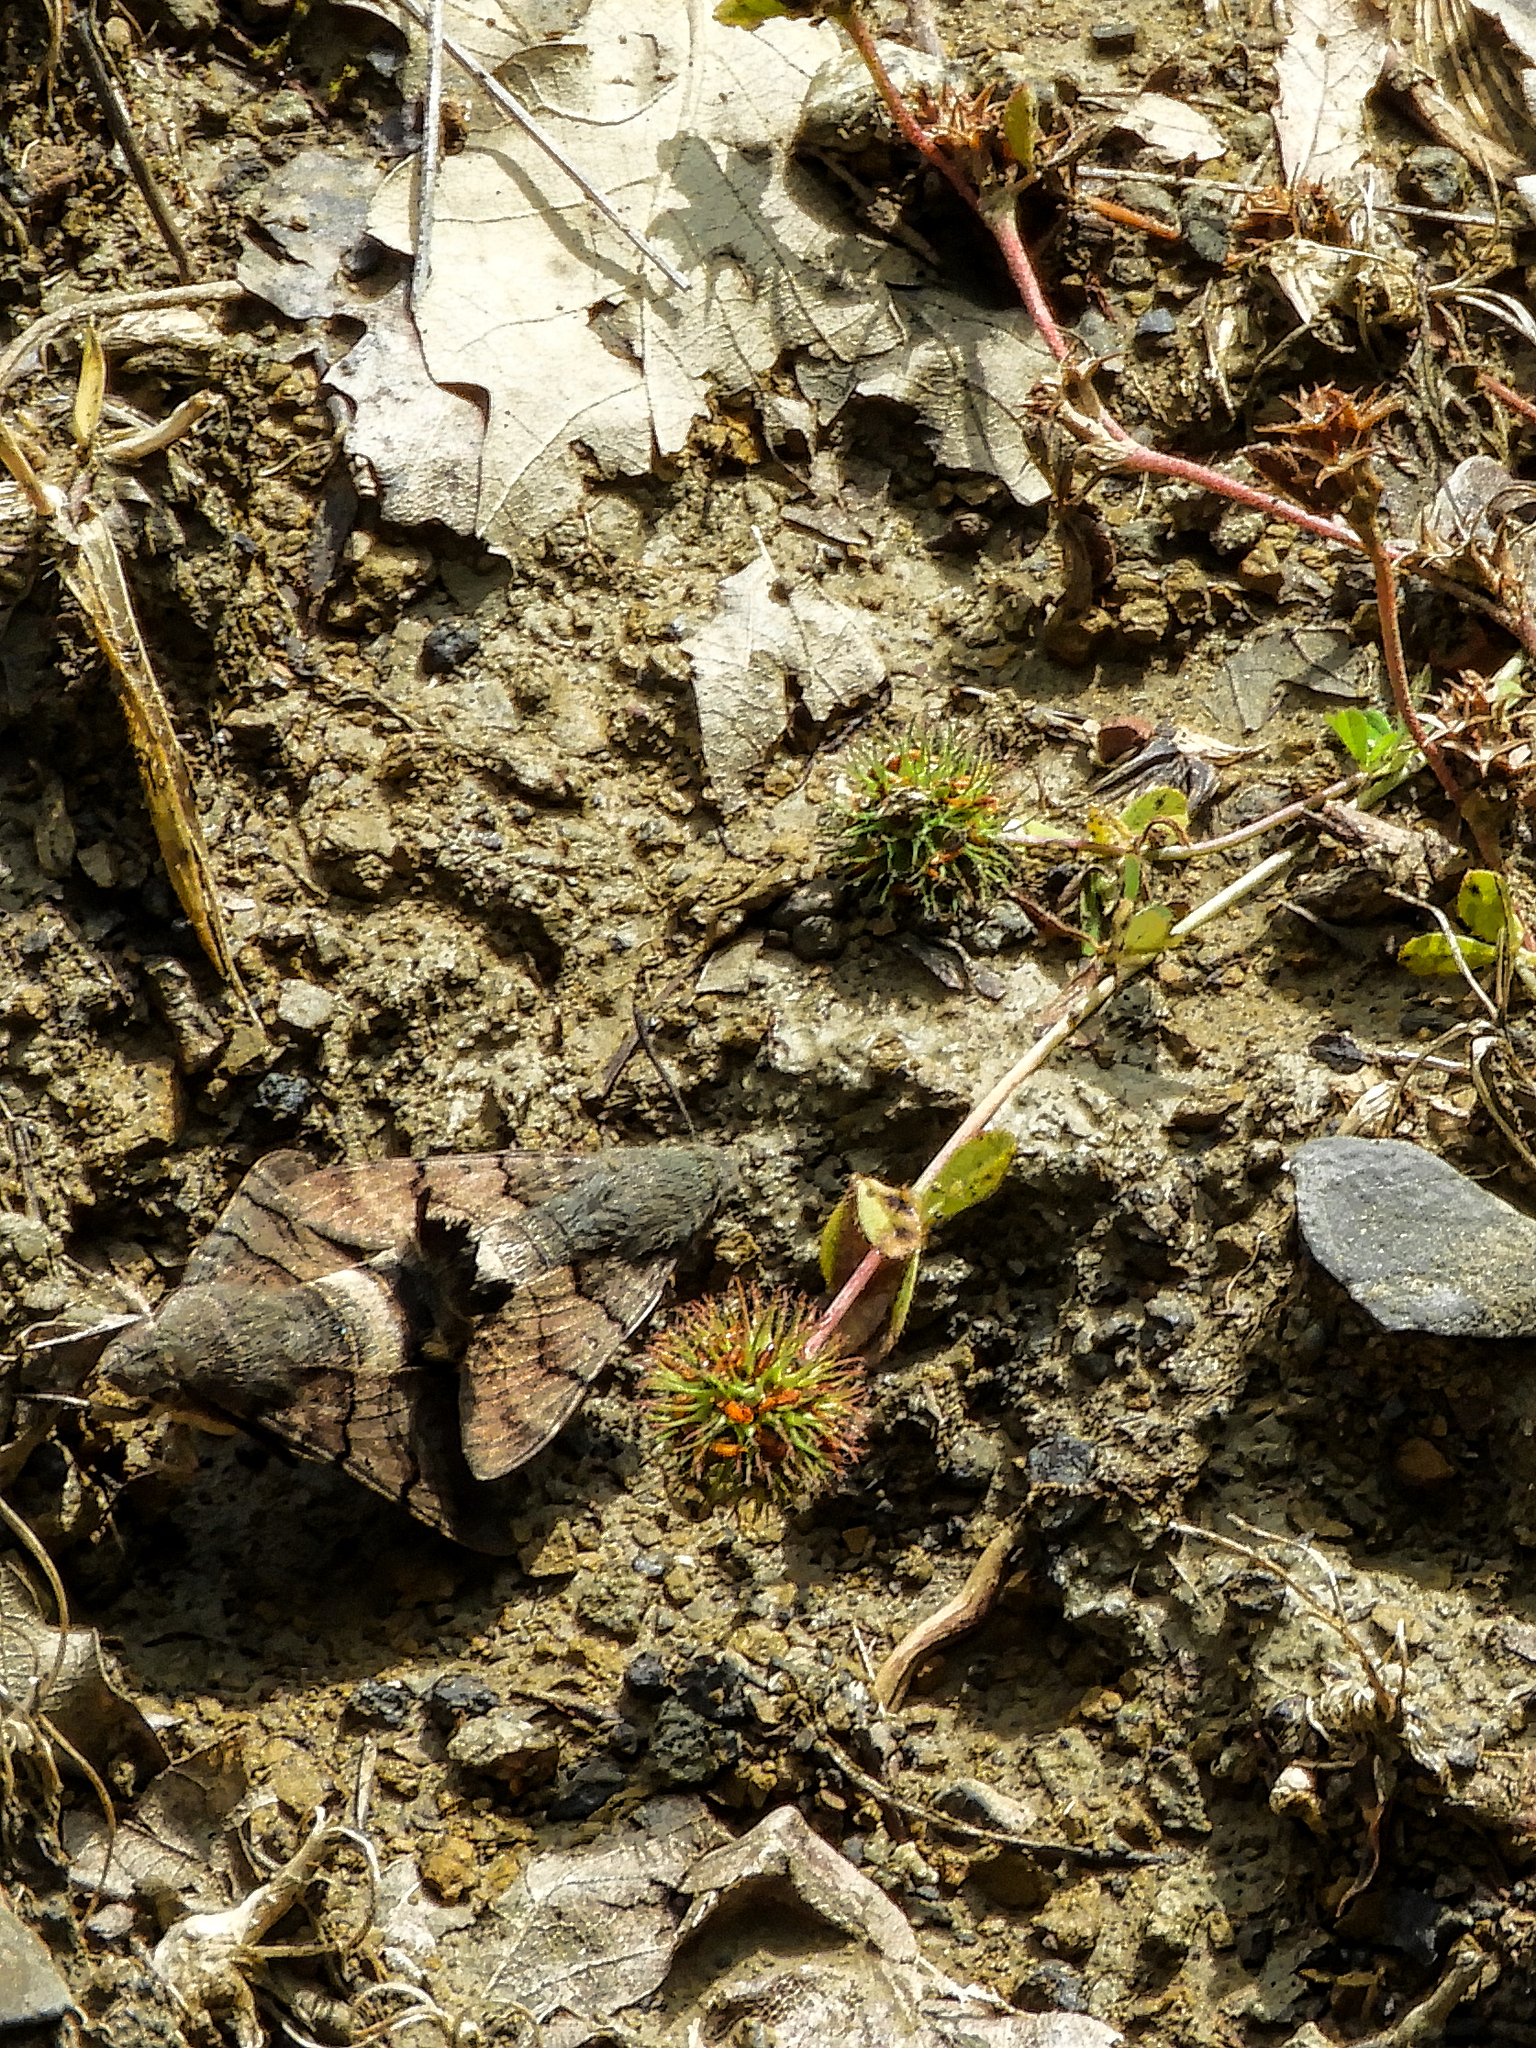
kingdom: Animalia
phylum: Arthropoda
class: Insecta
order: Lepidoptera
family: Sphingidae
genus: Macroglossum
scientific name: Macroglossum stellatarum
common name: Humming-bird hawk-moth
